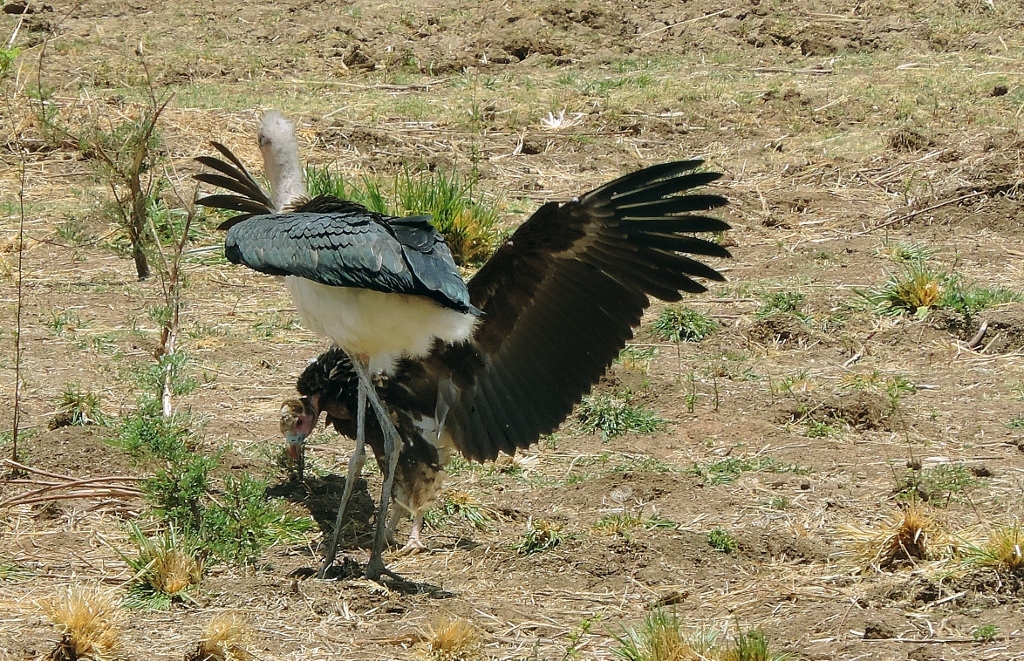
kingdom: Animalia
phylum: Chordata
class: Aves
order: Accipitriformes
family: Accipitridae
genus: Trigonoceps
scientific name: Trigonoceps occipitalis
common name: White-headed vulture
